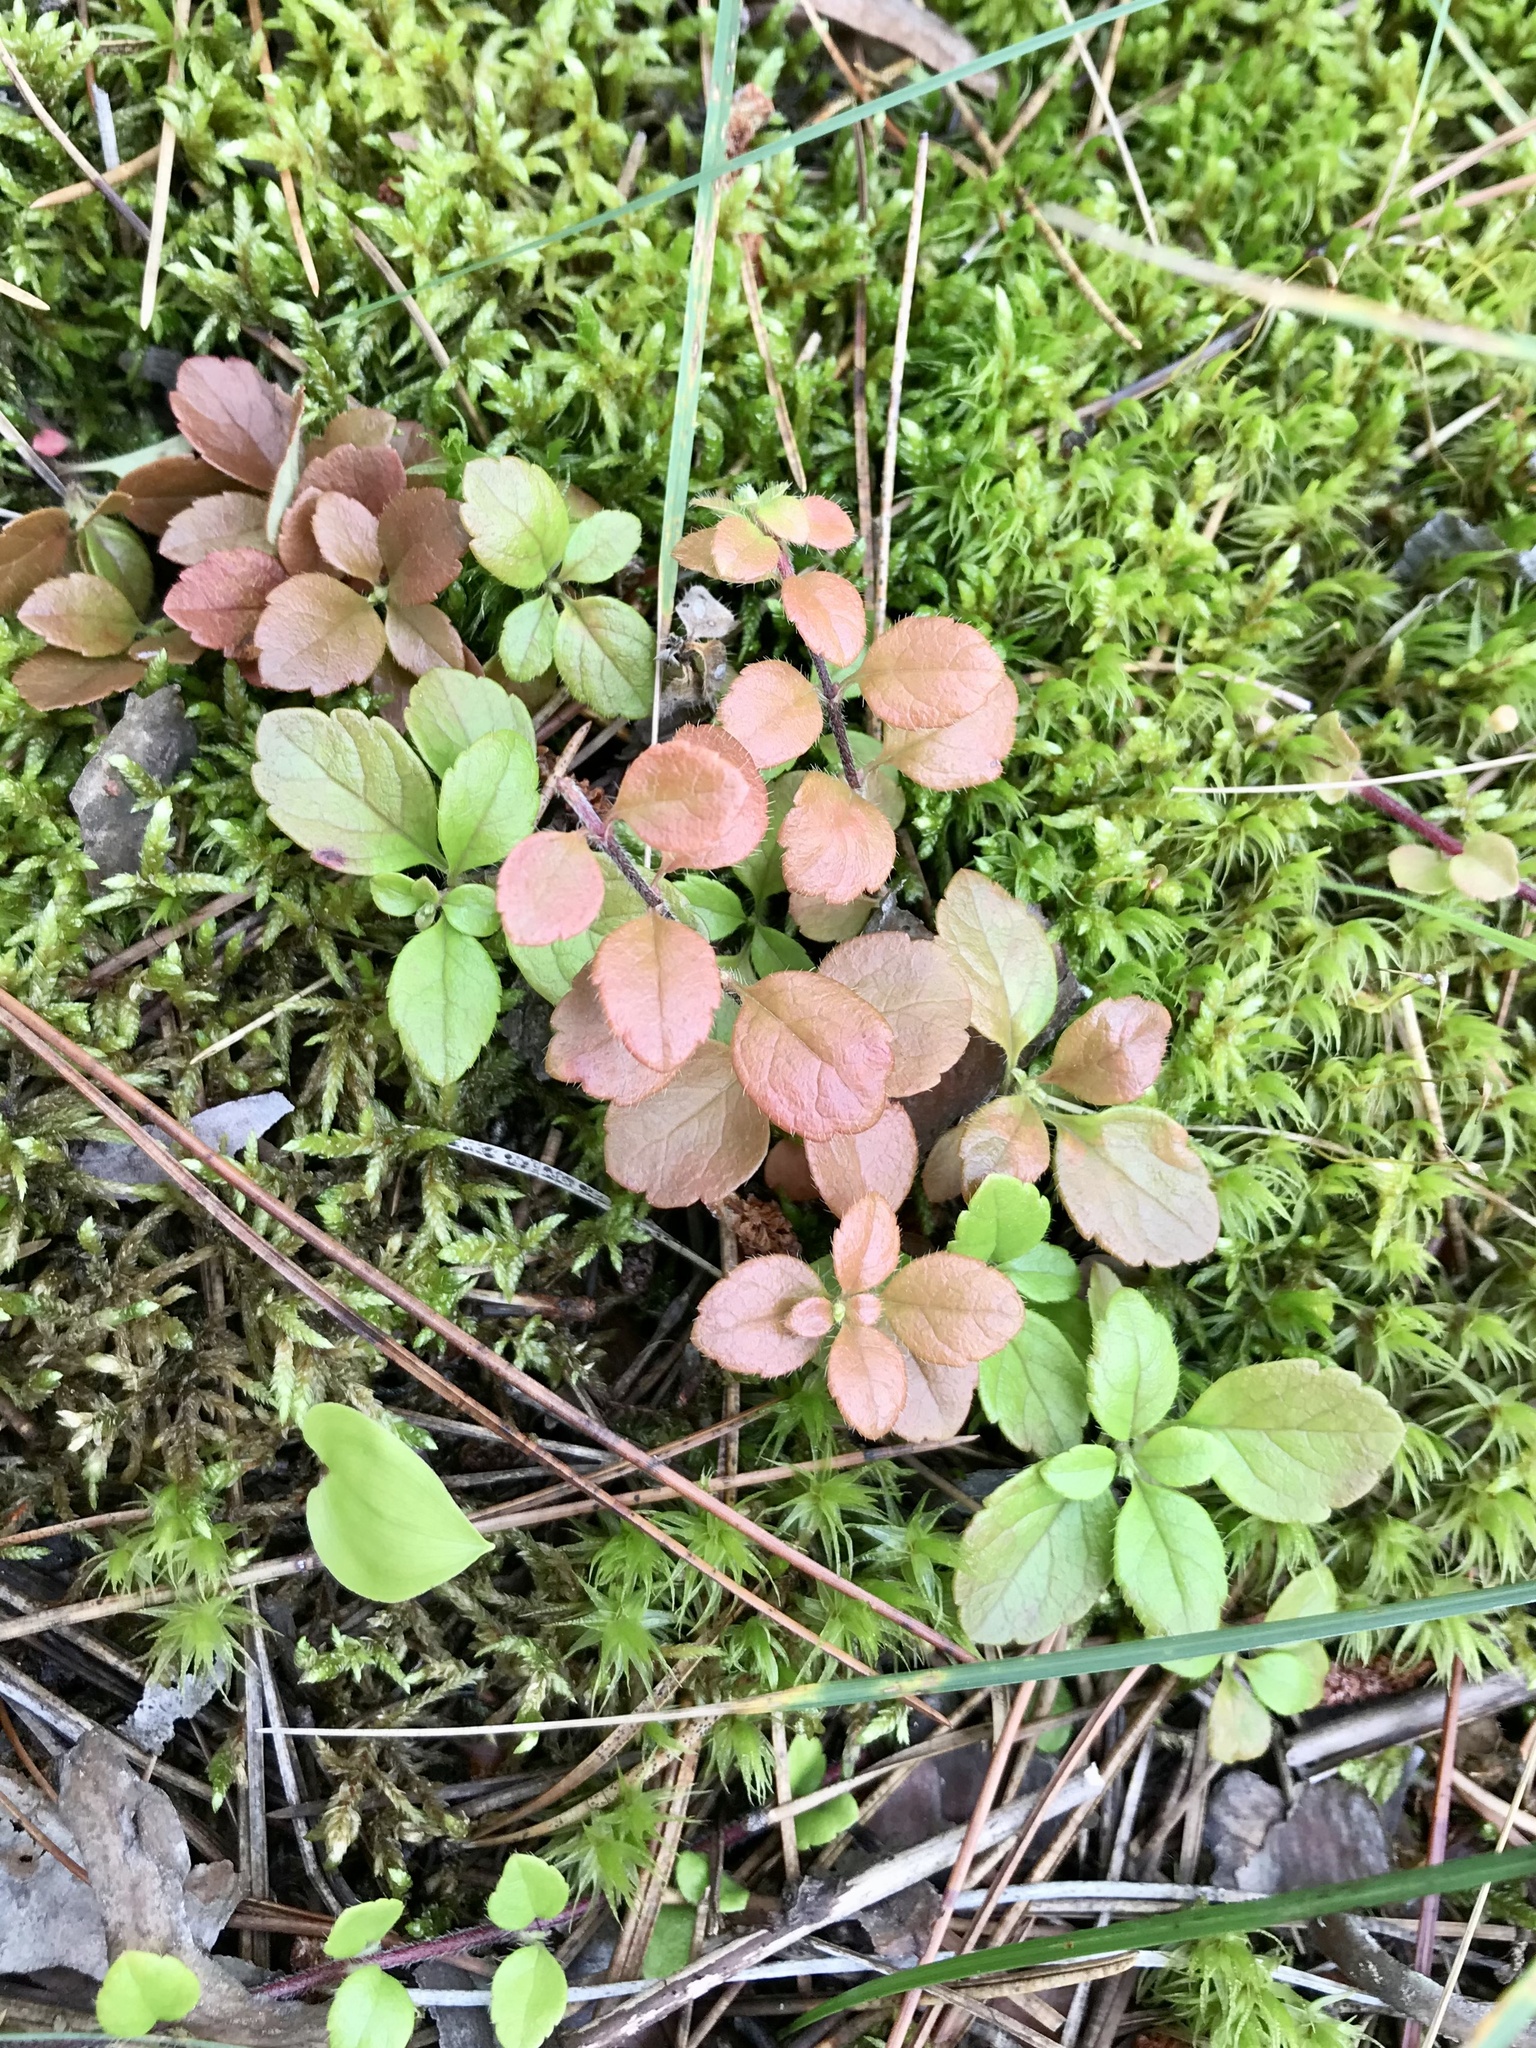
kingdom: Plantae
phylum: Tracheophyta
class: Magnoliopsida
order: Dipsacales
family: Caprifoliaceae
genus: Linnaea
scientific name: Linnaea borealis
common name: Twinflower
